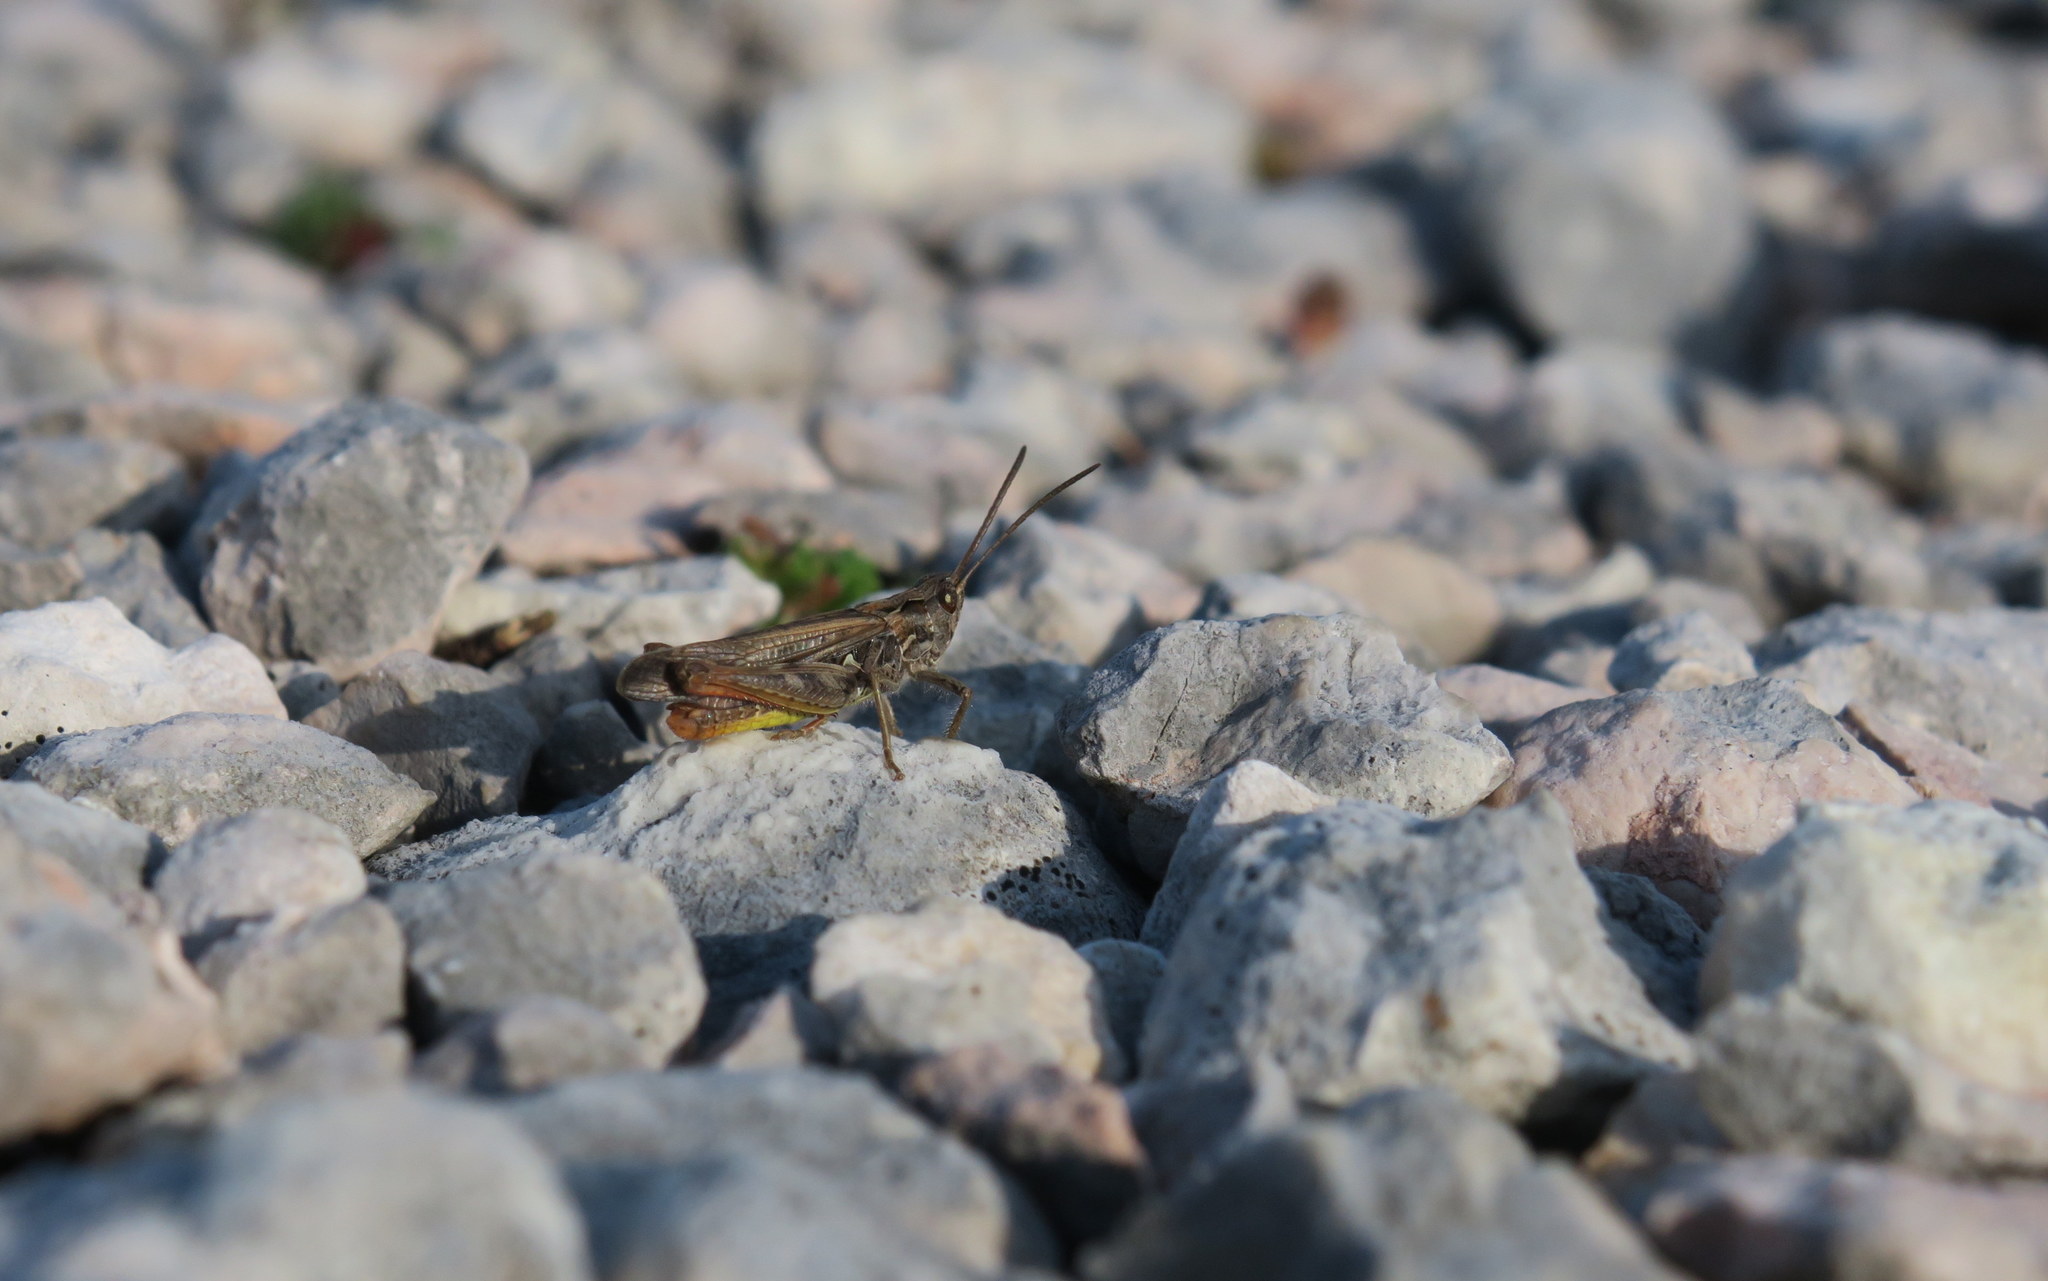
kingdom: Animalia
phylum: Arthropoda
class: Insecta
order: Orthoptera
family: Acrididae
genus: Chorthippus
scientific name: Chorthippus biguttulus
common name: Bow-winged grasshopper
